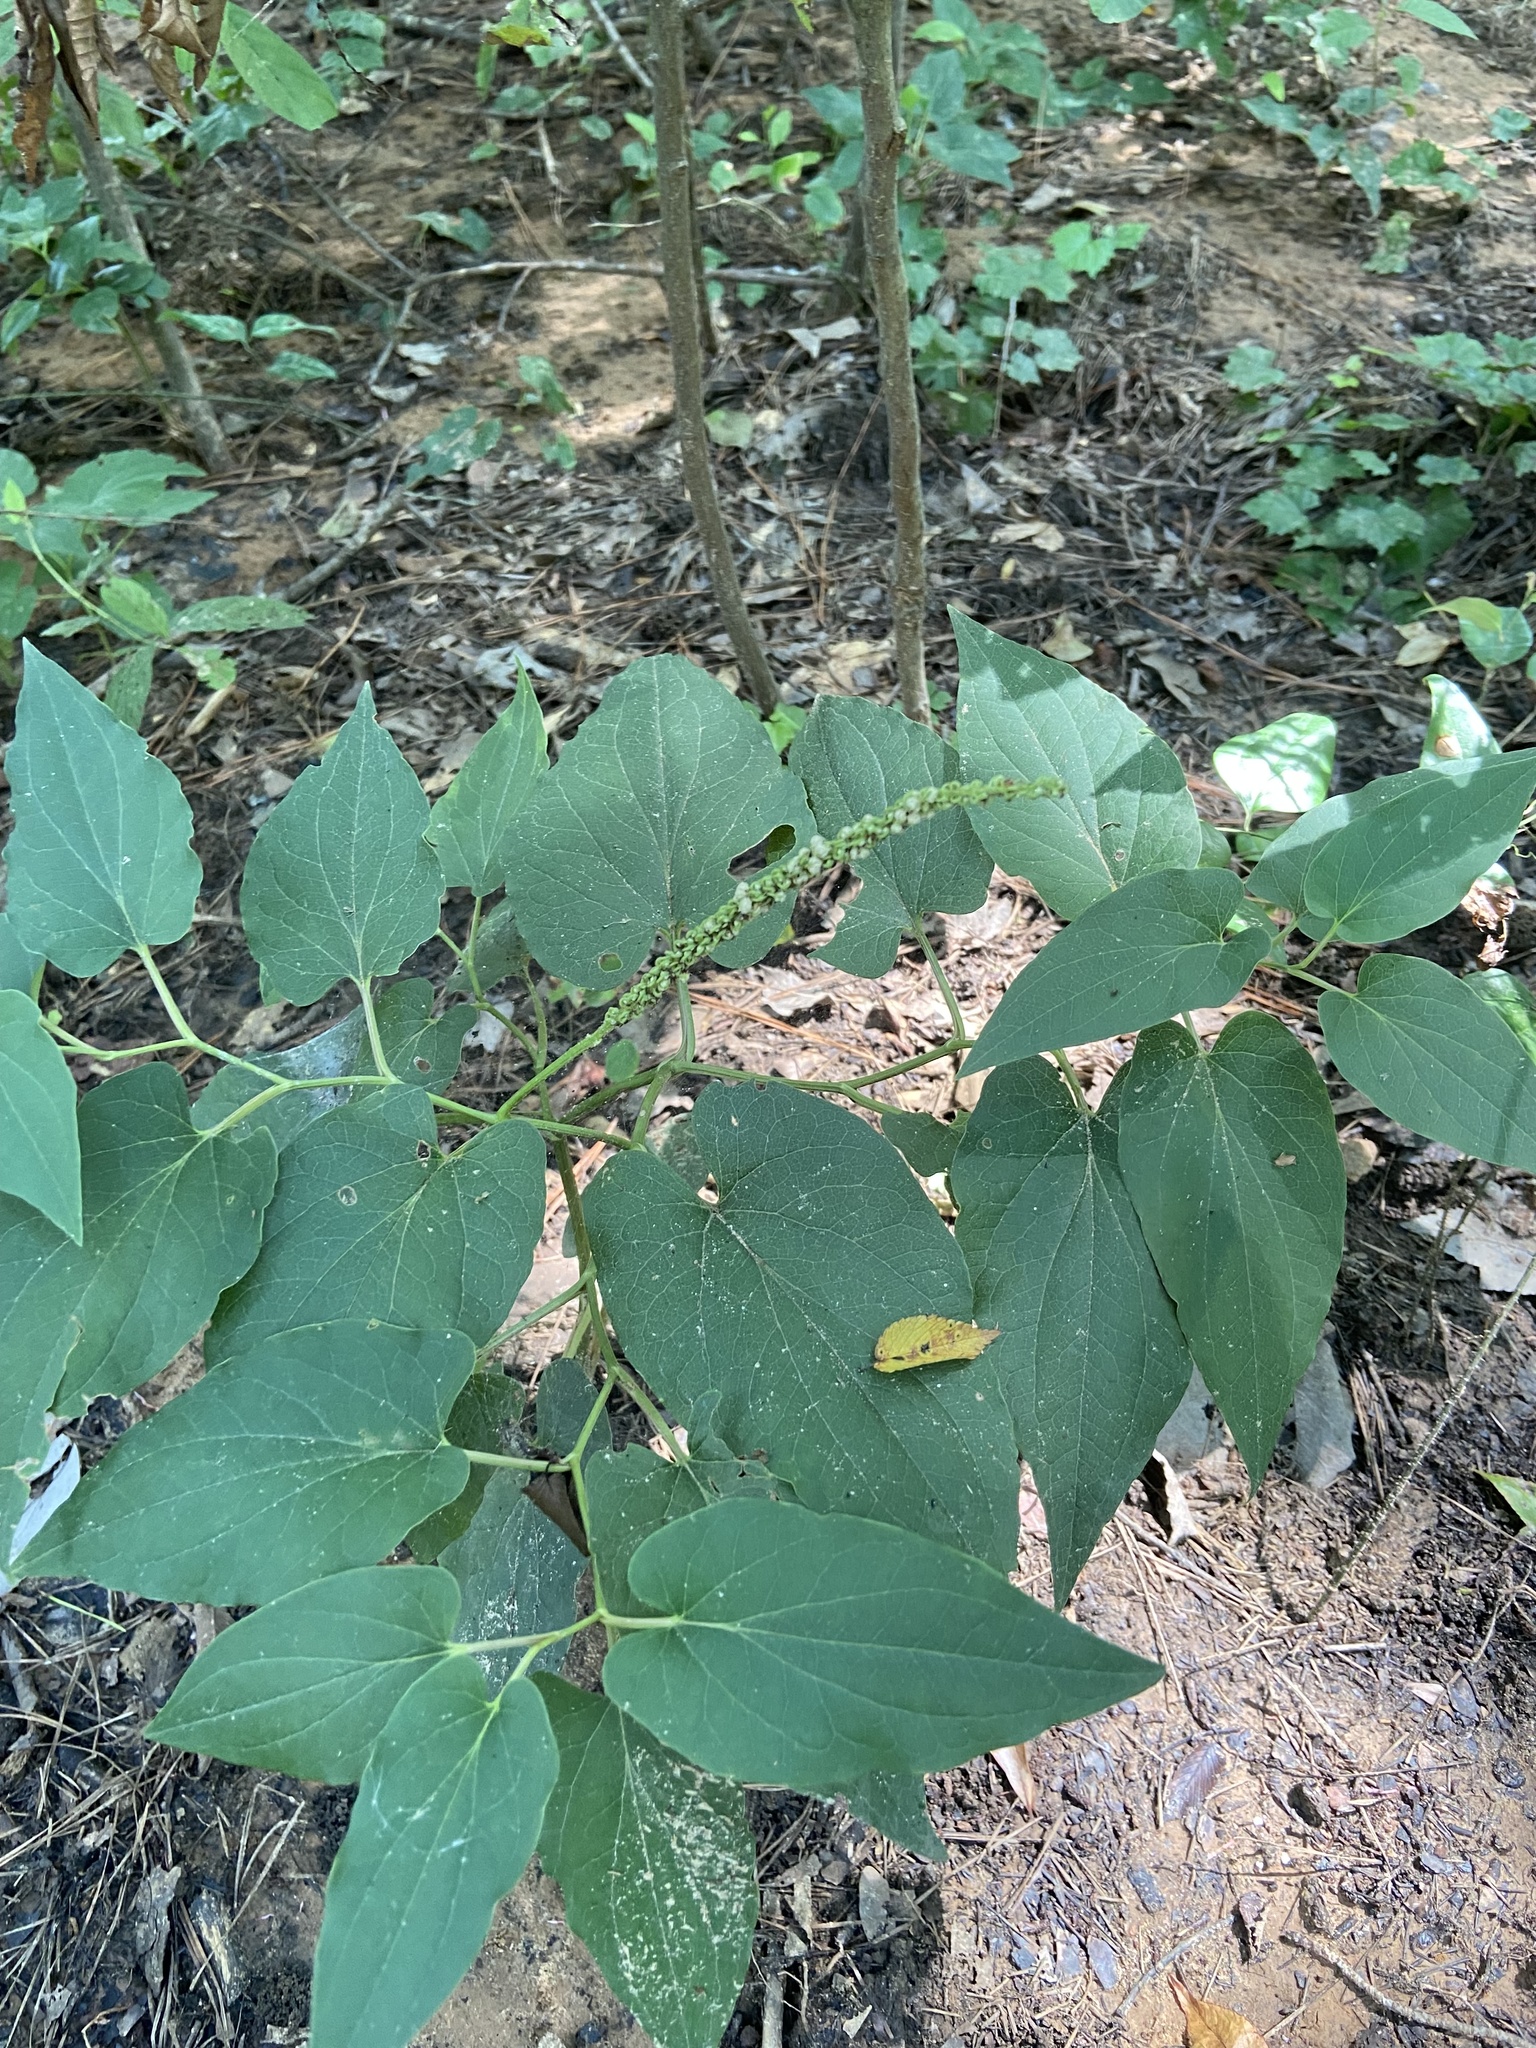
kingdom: Plantae
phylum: Tracheophyta
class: Magnoliopsida
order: Piperales
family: Saururaceae
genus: Saururus
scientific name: Saururus cernuus
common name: Lizard's-tail
